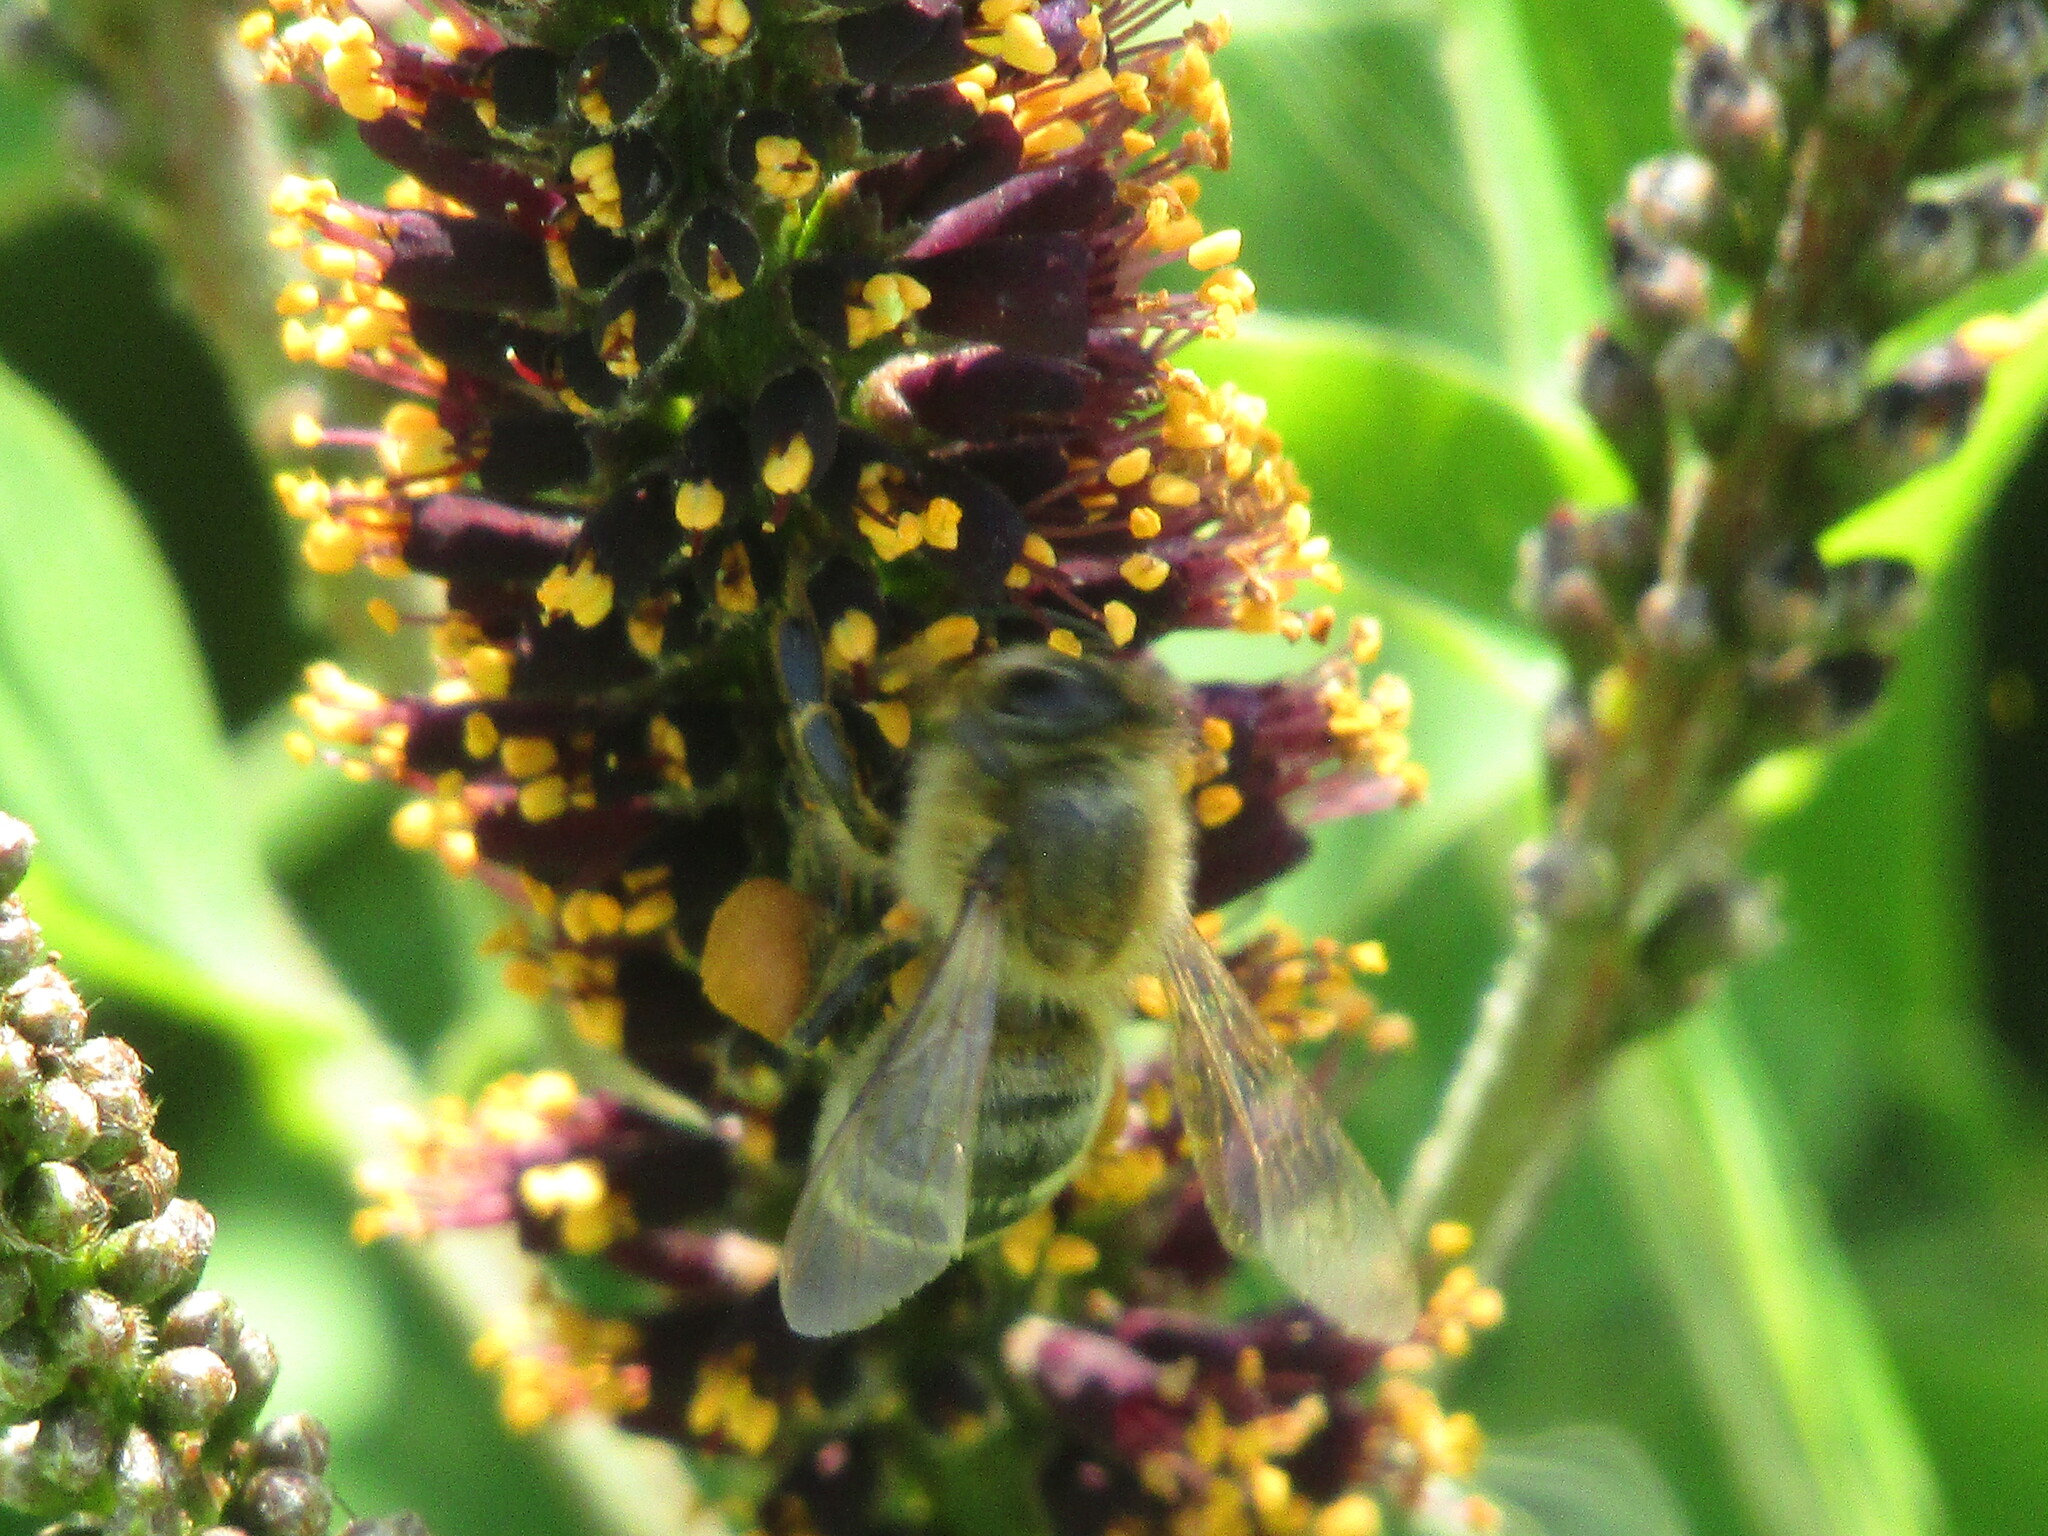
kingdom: Plantae
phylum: Tracheophyta
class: Magnoliopsida
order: Fabales
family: Fabaceae
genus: Amorpha
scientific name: Amorpha fruticosa
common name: False indigo
